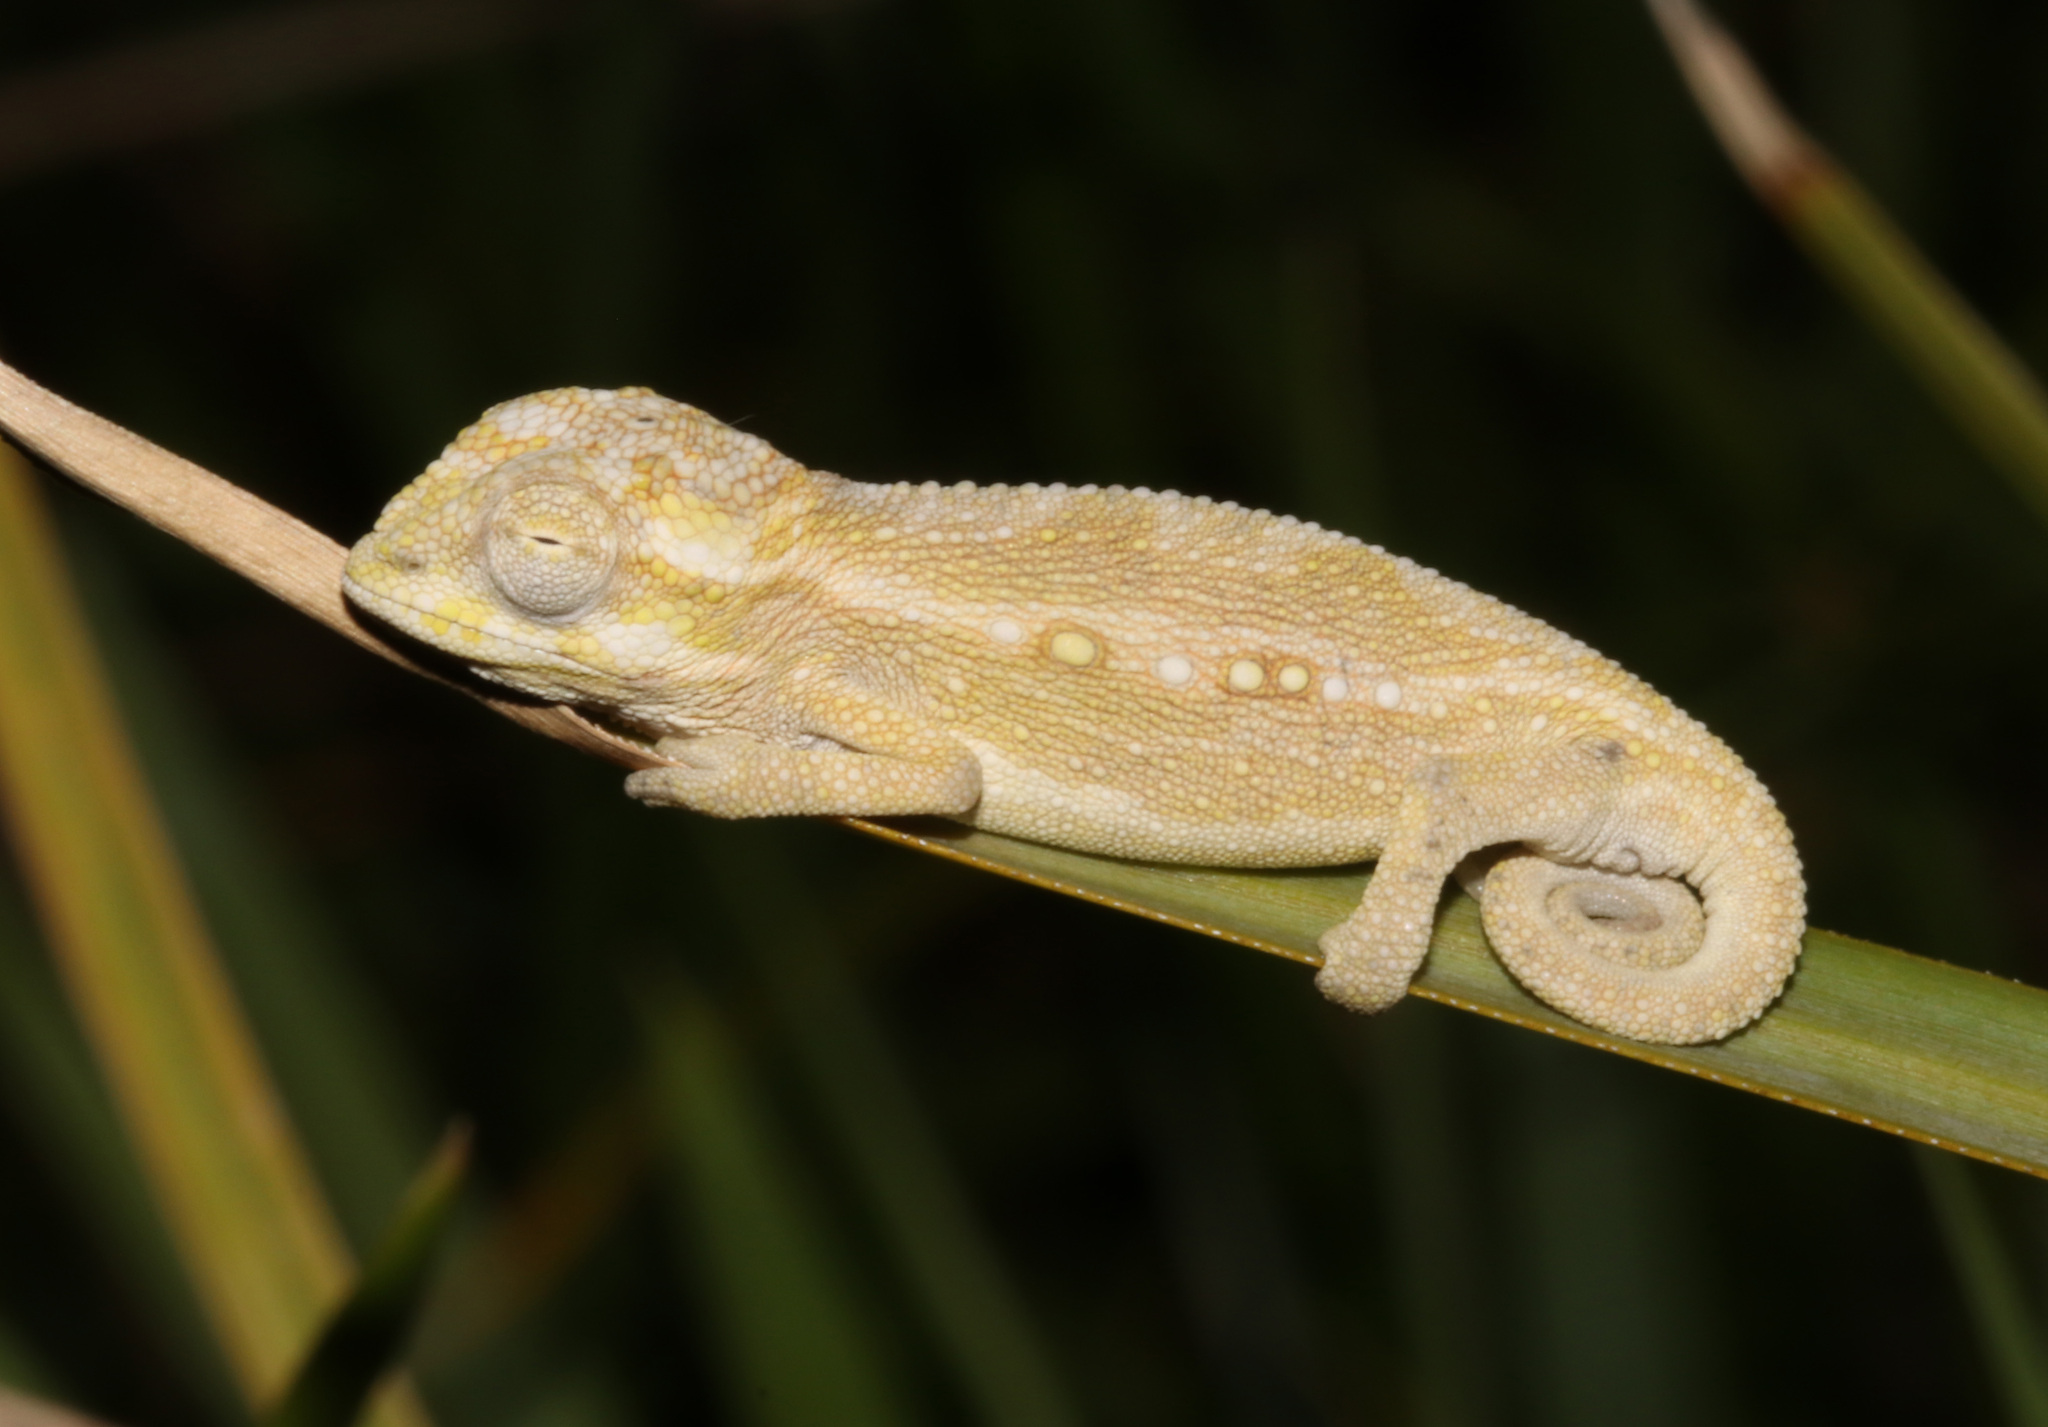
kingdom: Animalia
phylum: Chordata
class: Squamata
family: Chamaeleonidae
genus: Bradypodion
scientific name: Bradypodion pumilum
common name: Cape dwarf chameleon
